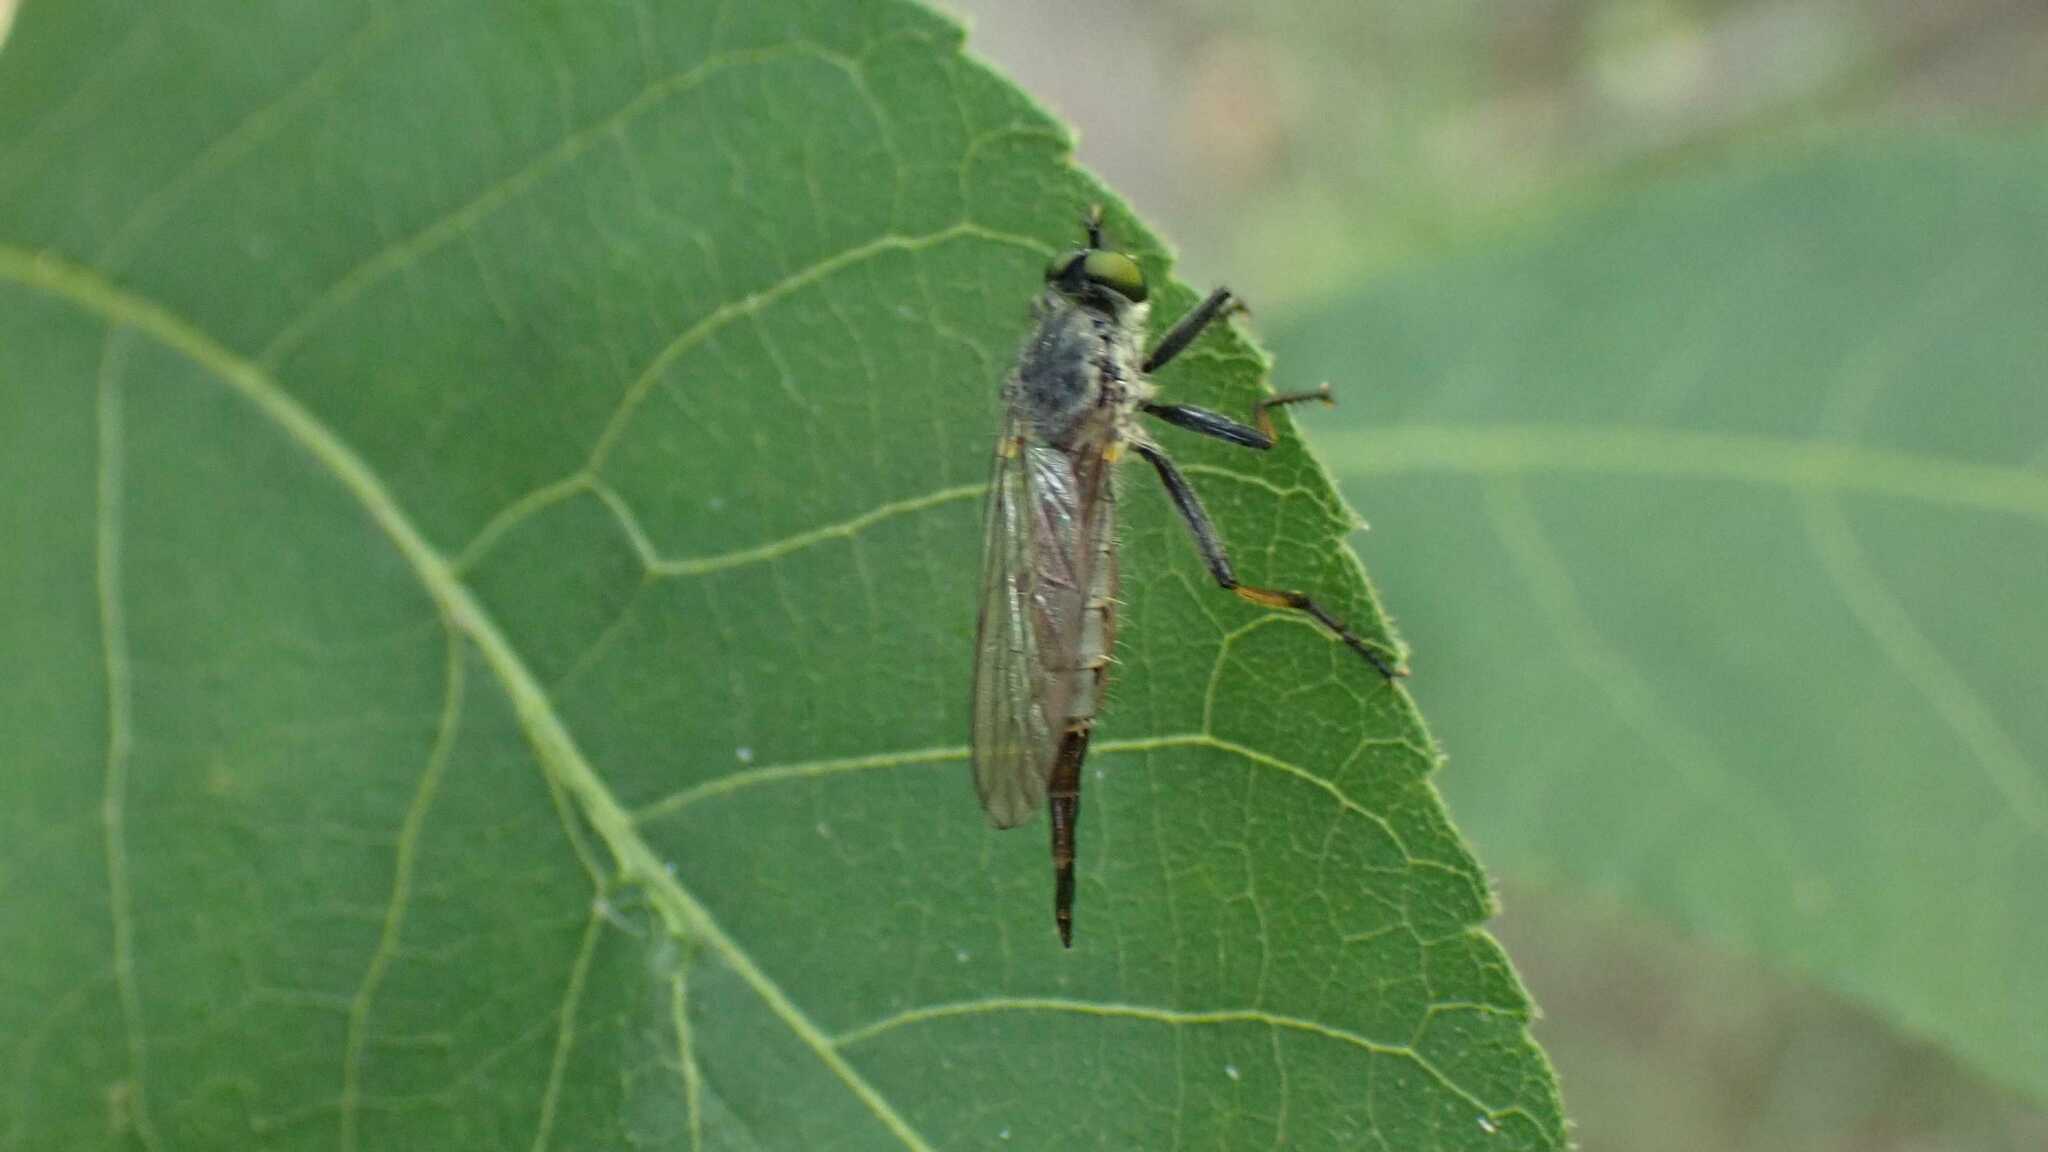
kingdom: Animalia
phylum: Arthropoda
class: Insecta
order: Diptera
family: Asilidae
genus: Neoitamus
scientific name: Neoitamus
